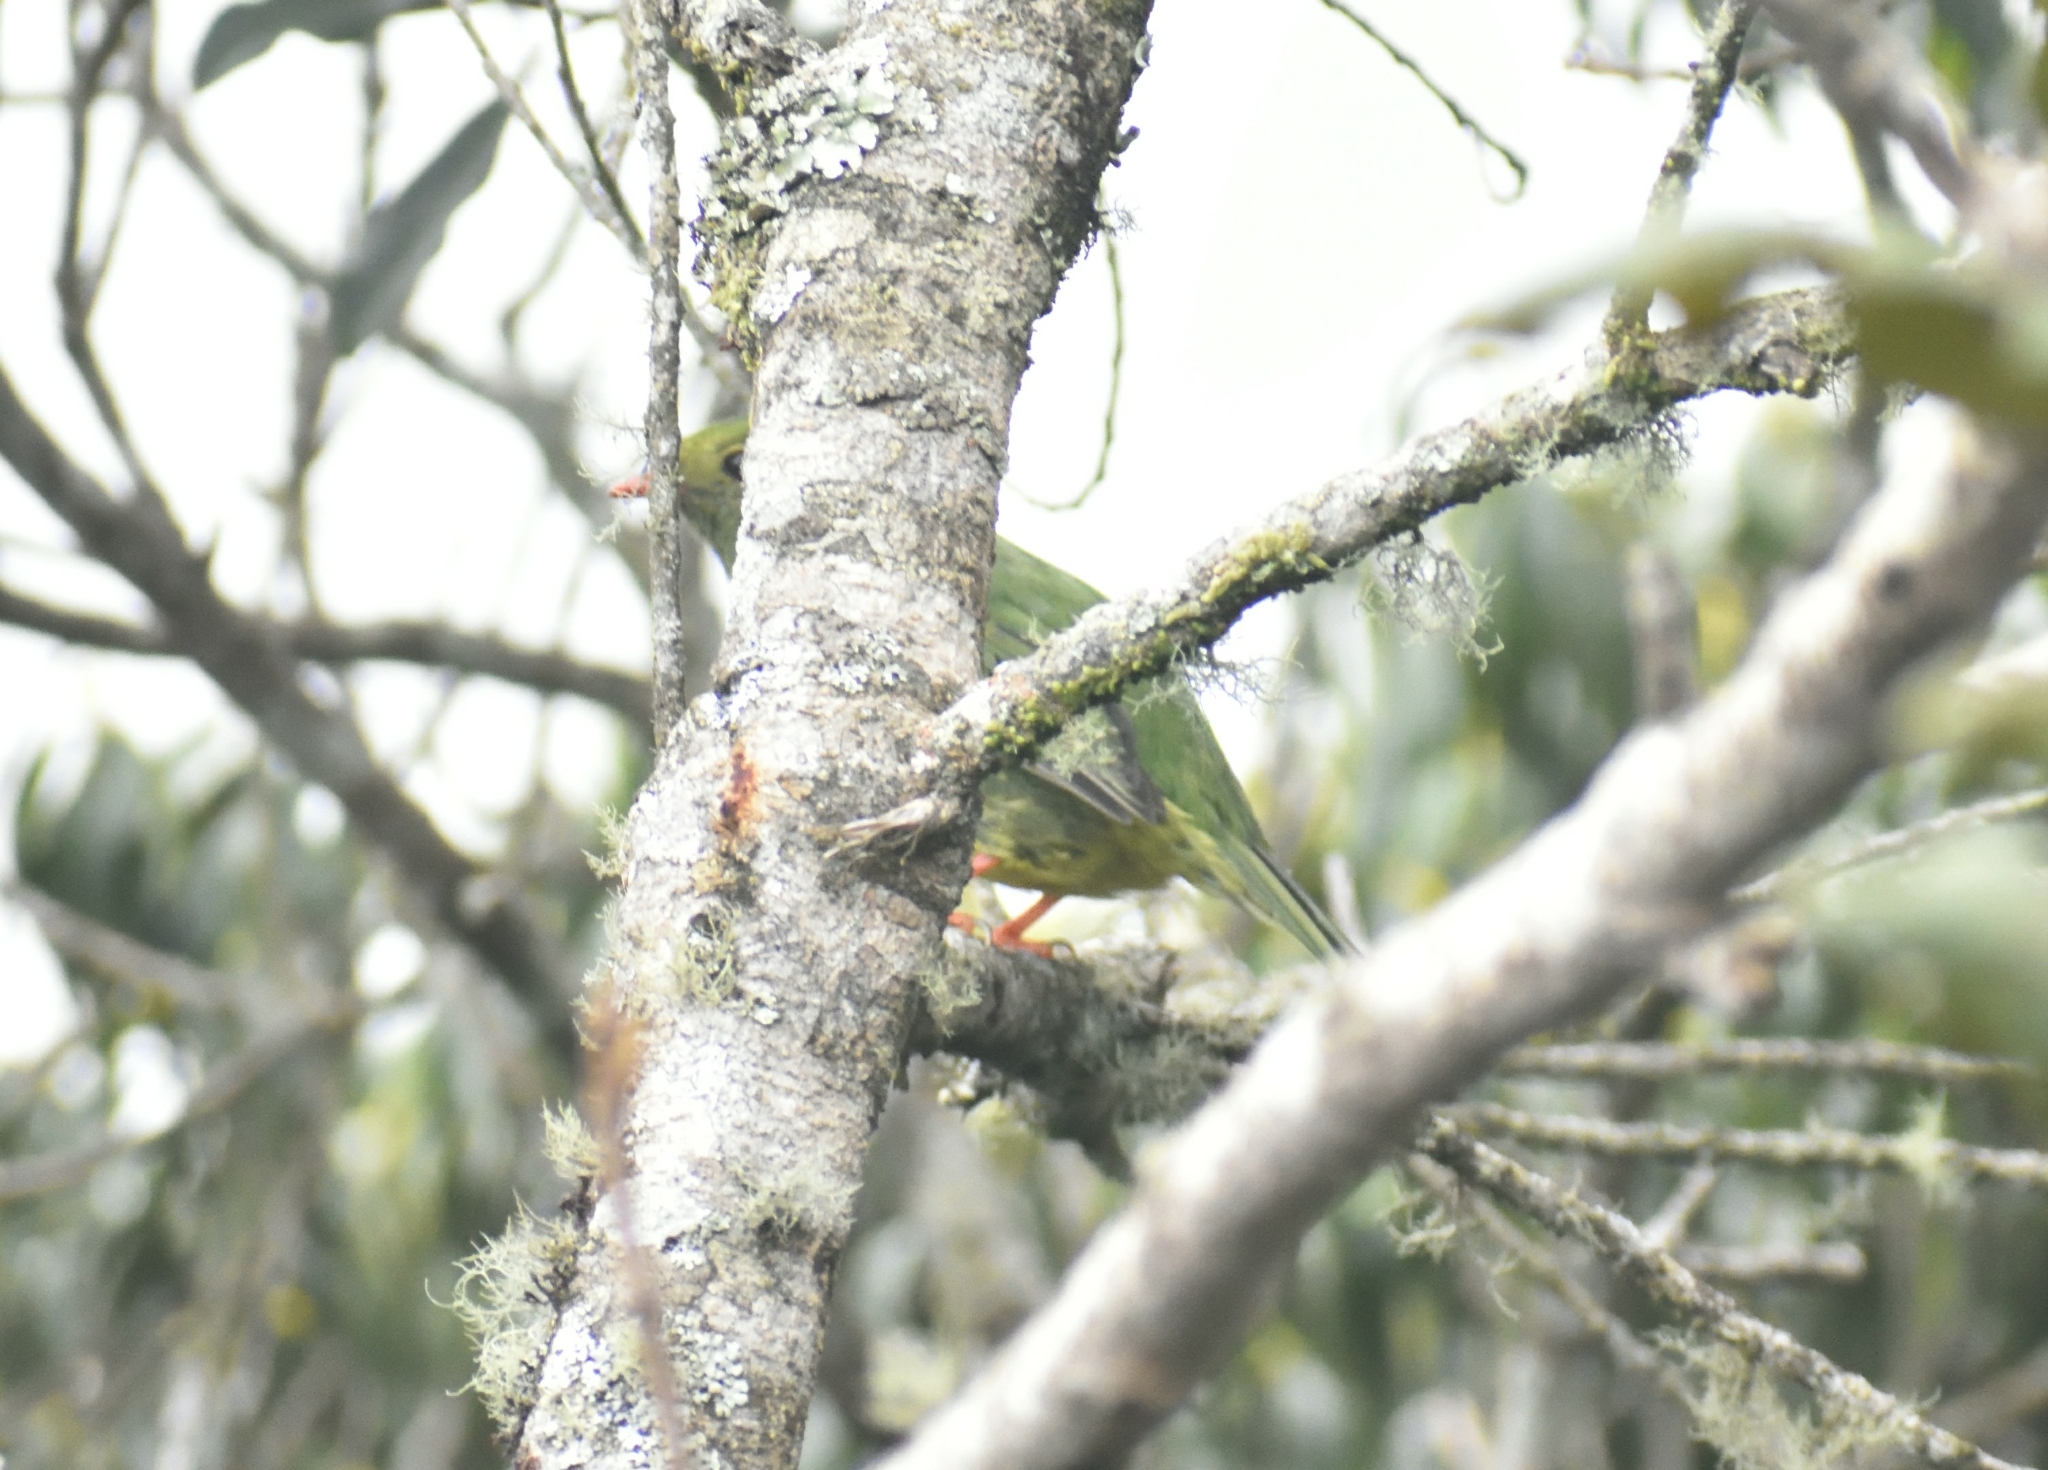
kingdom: Animalia
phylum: Chordata
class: Aves
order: Passeriformes
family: Cotingidae
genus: Pipreola
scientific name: Pipreola riefferii
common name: Green-and-black fruiteater
